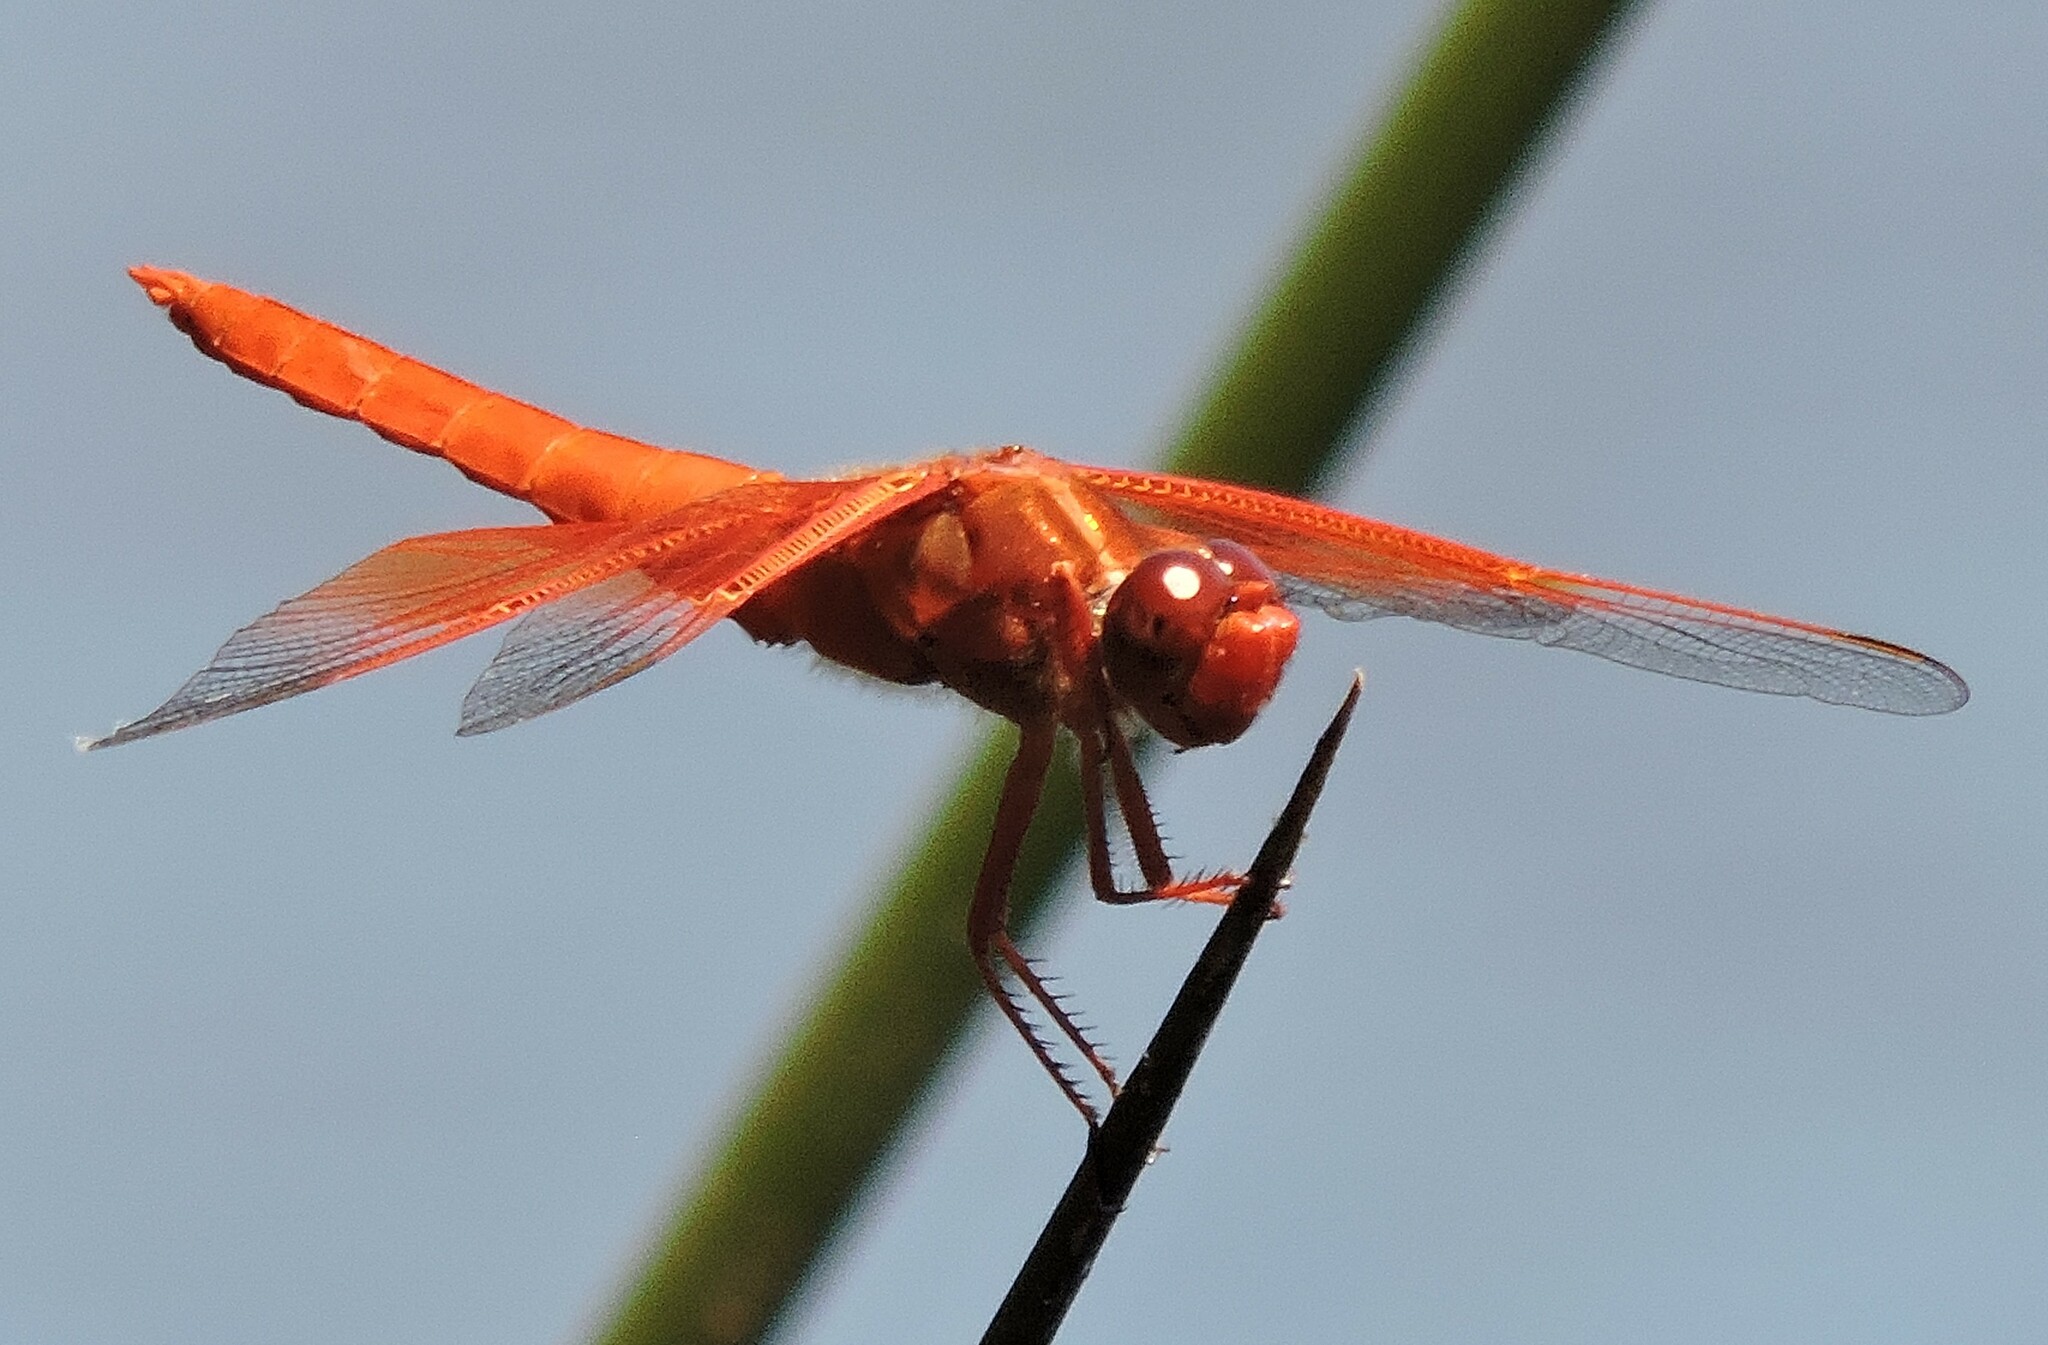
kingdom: Animalia
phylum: Arthropoda
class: Insecta
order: Odonata
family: Libellulidae
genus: Libellula
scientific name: Libellula saturata
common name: Flame skimmer
